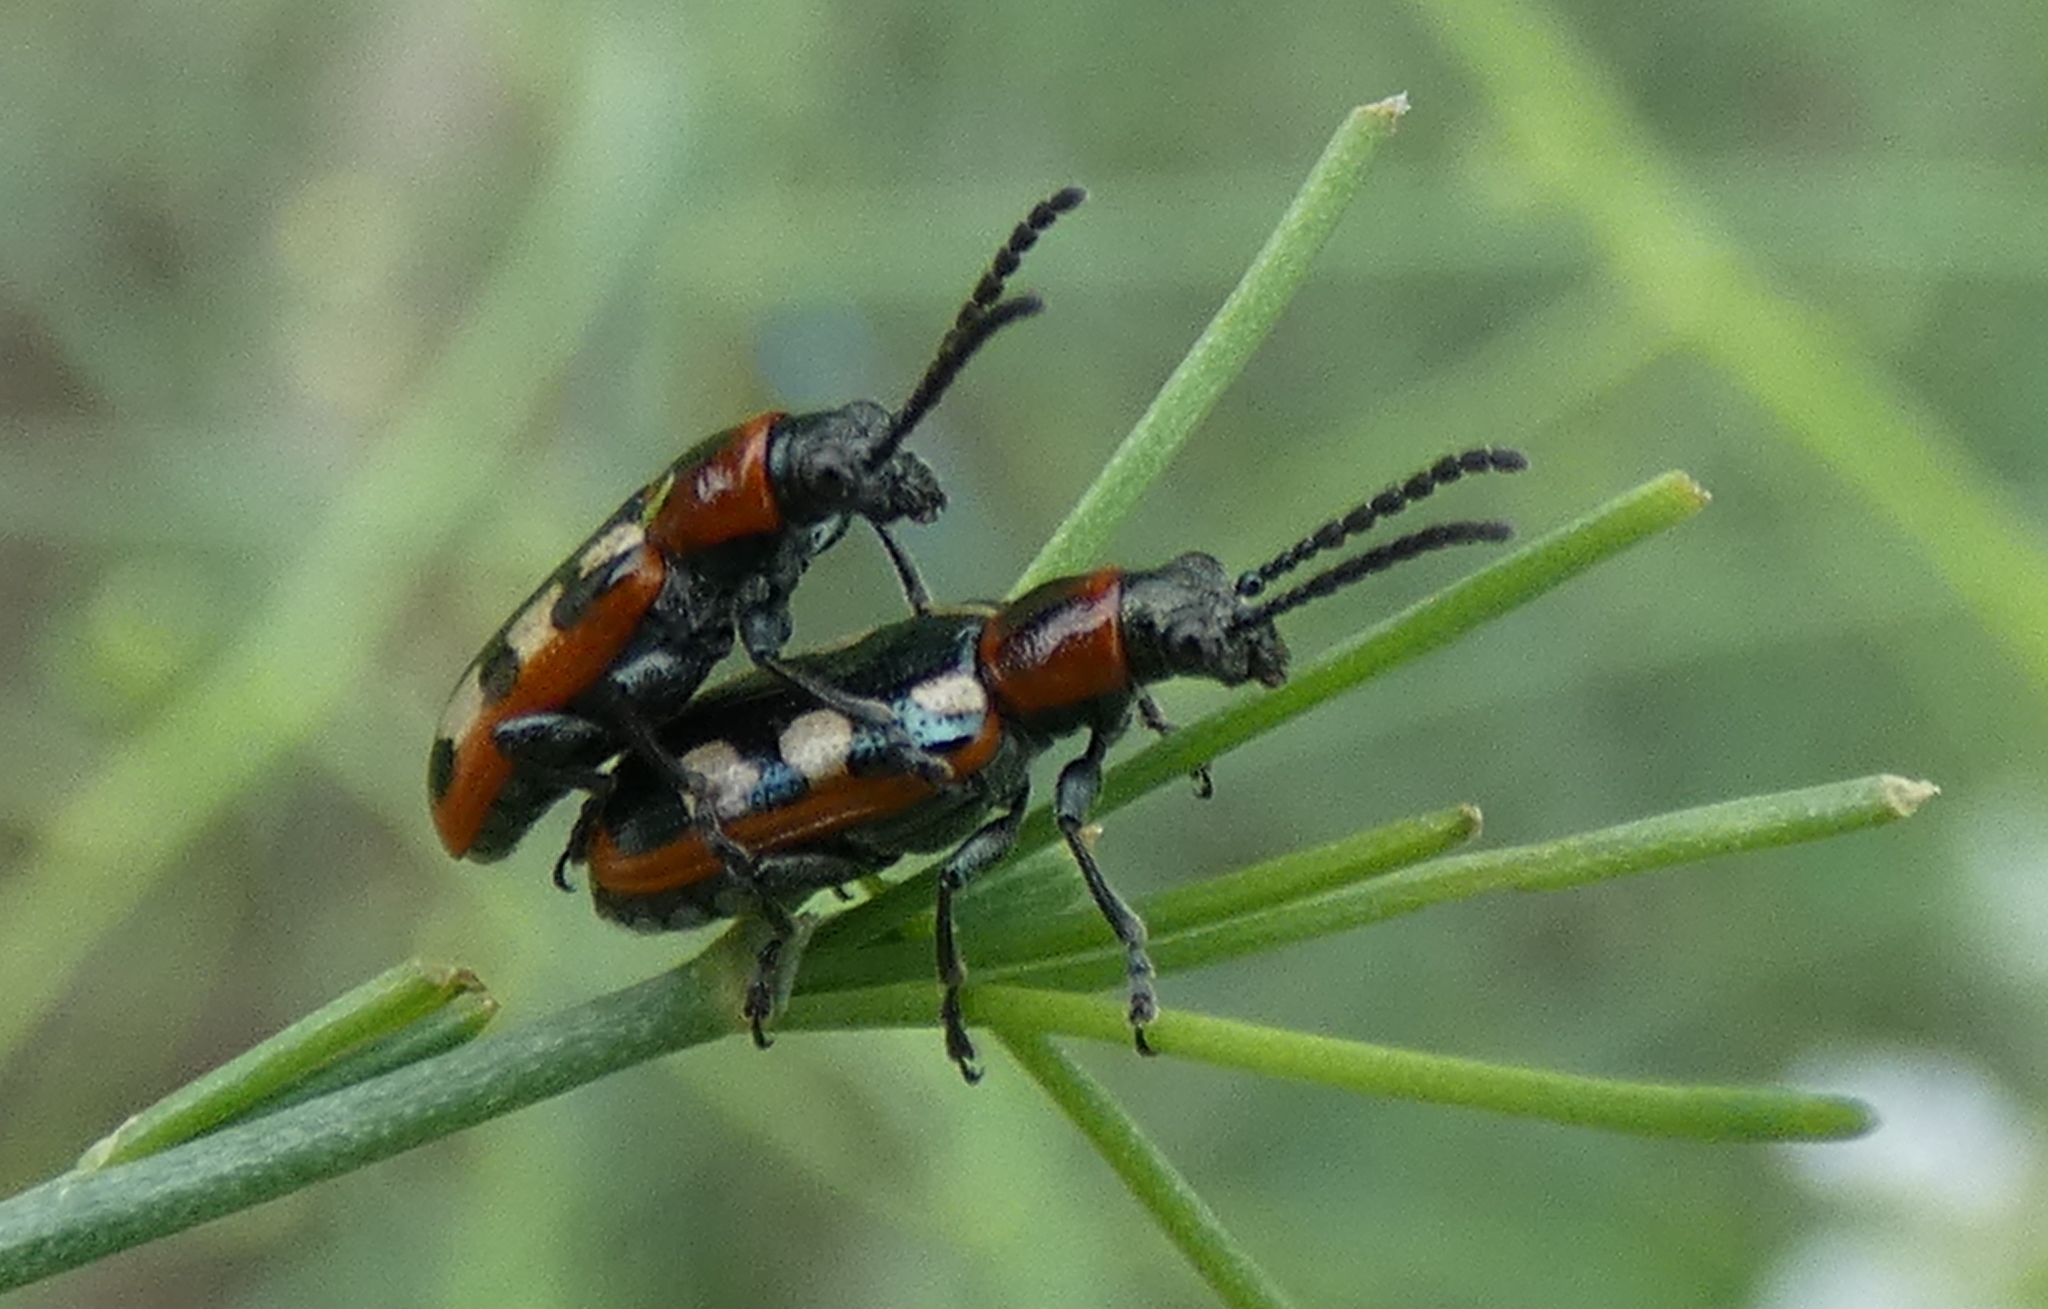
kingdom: Animalia
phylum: Arthropoda
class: Insecta
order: Coleoptera
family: Chrysomelidae
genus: Crioceris
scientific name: Crioceris asparagi
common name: Asparagus beetle
